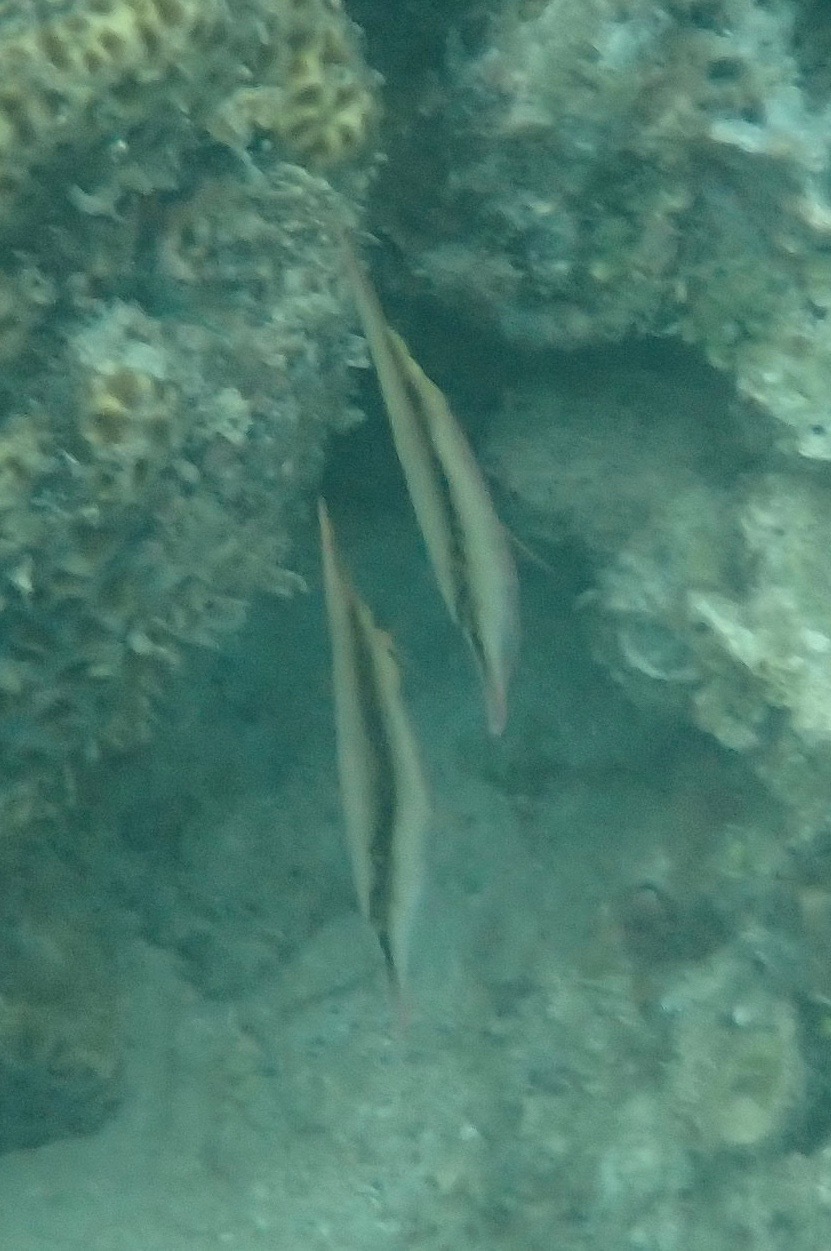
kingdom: Animalia
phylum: Chordata
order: Syngnathiformes
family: Centriscidae
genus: Aeoliscus
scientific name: Aeoliscus strigatus
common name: Canif
